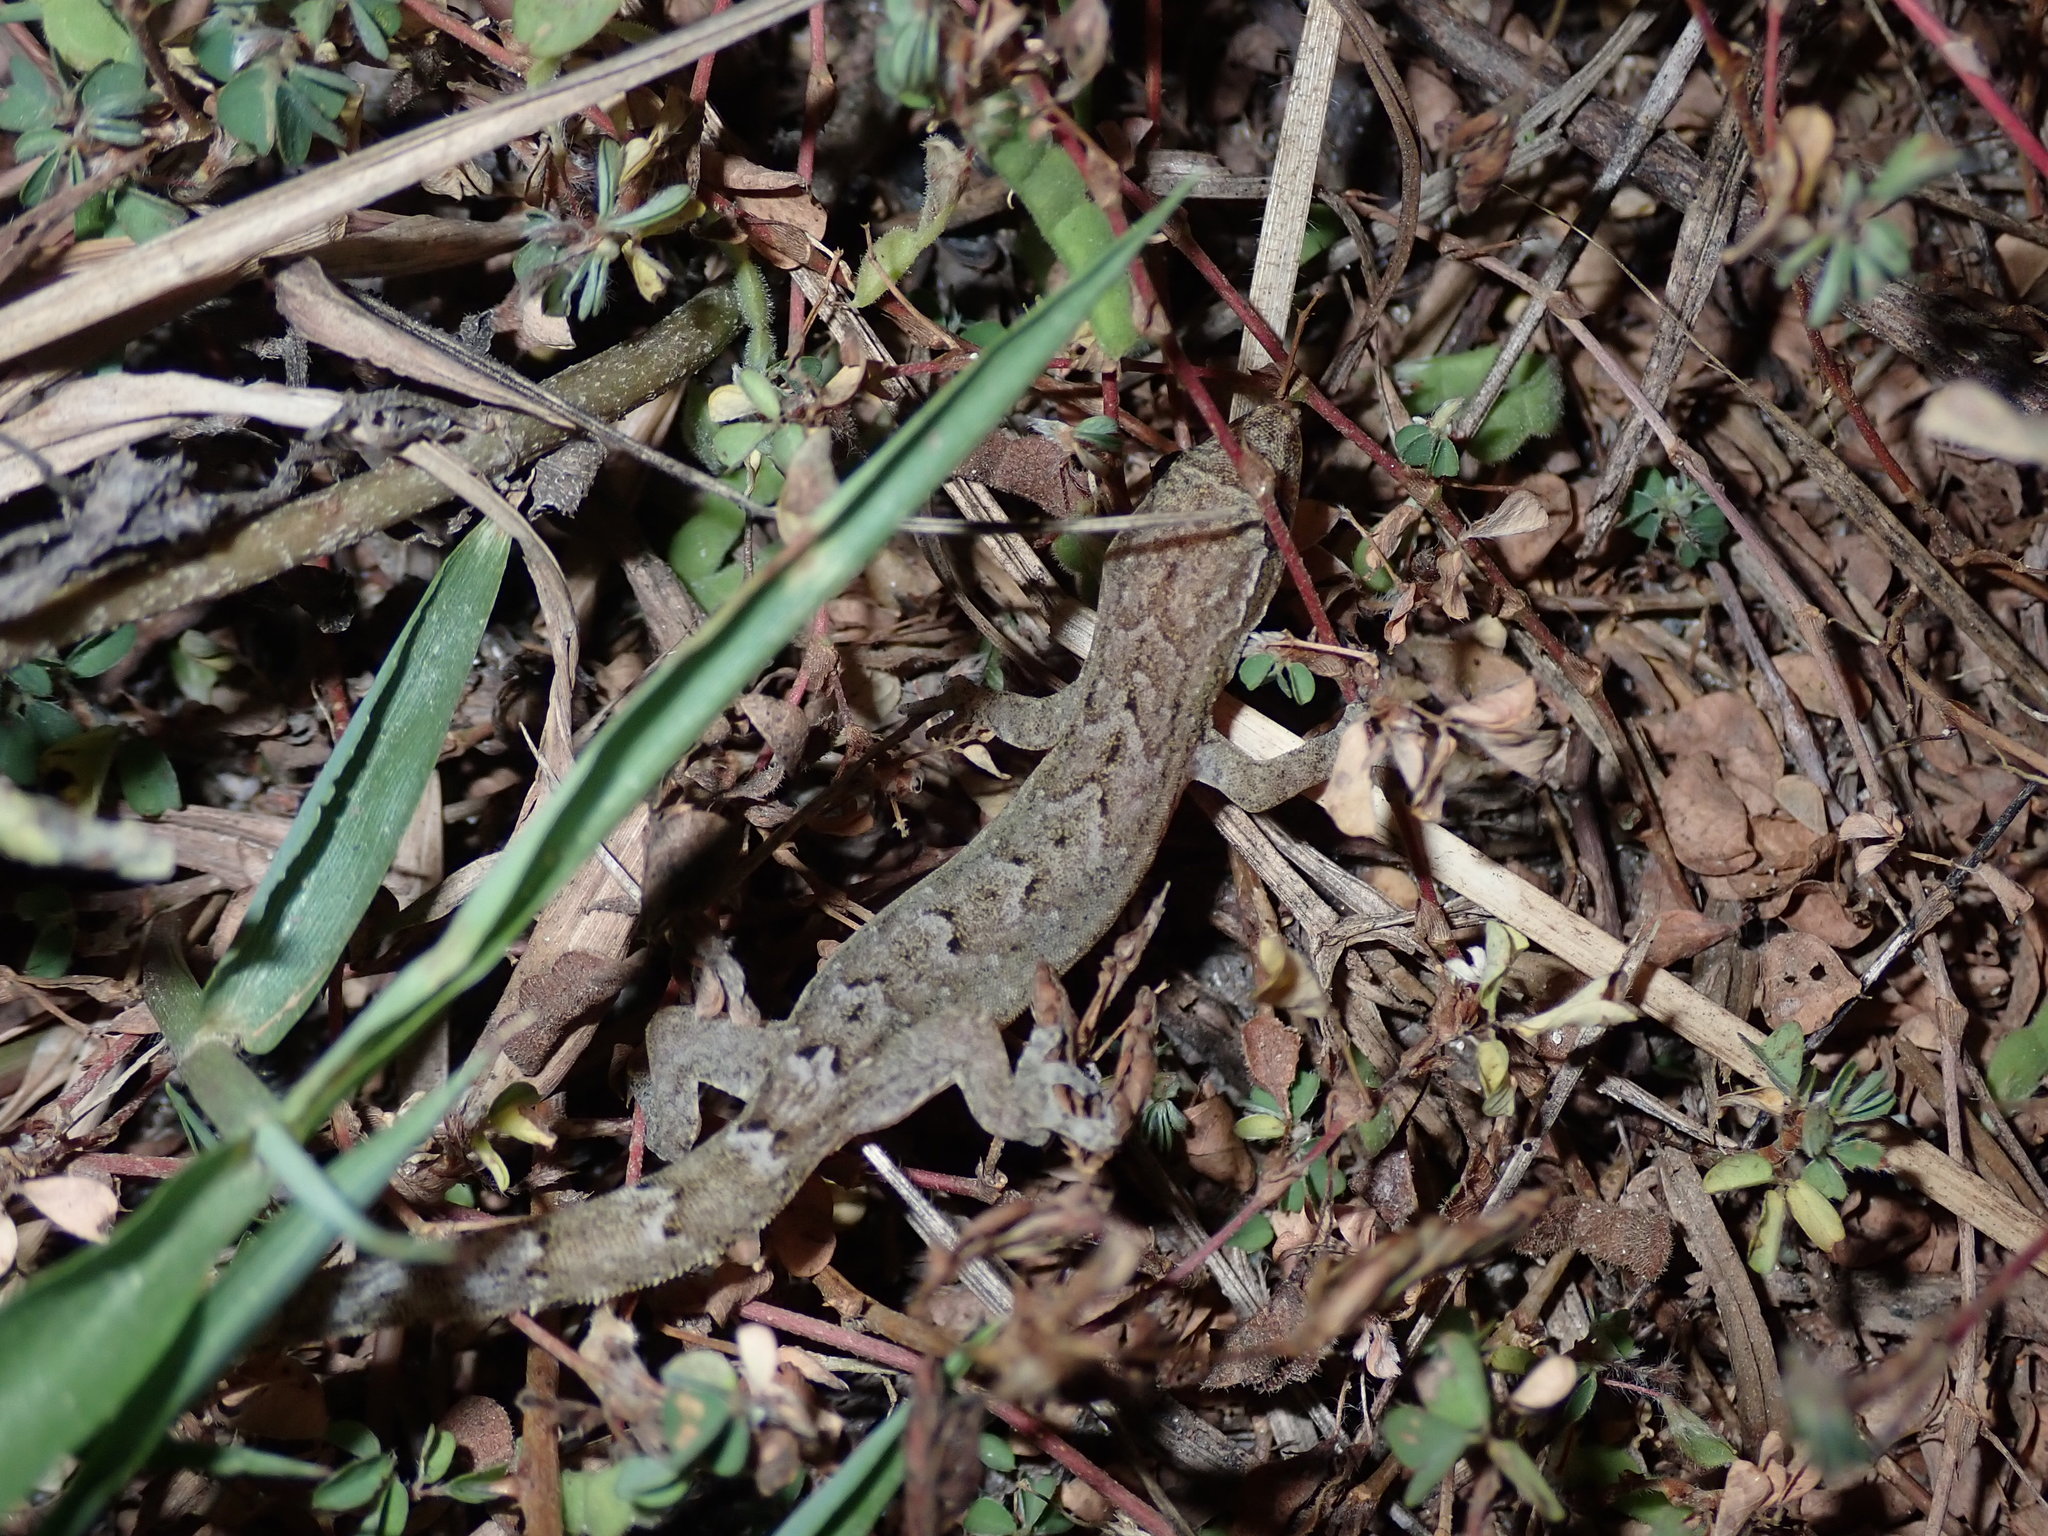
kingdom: Animalia
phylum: Chordata
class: Squamata
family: Gekkonidae
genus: Lepidodactylus
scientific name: Lepidodactylus lugubris
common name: Mourning gecko
